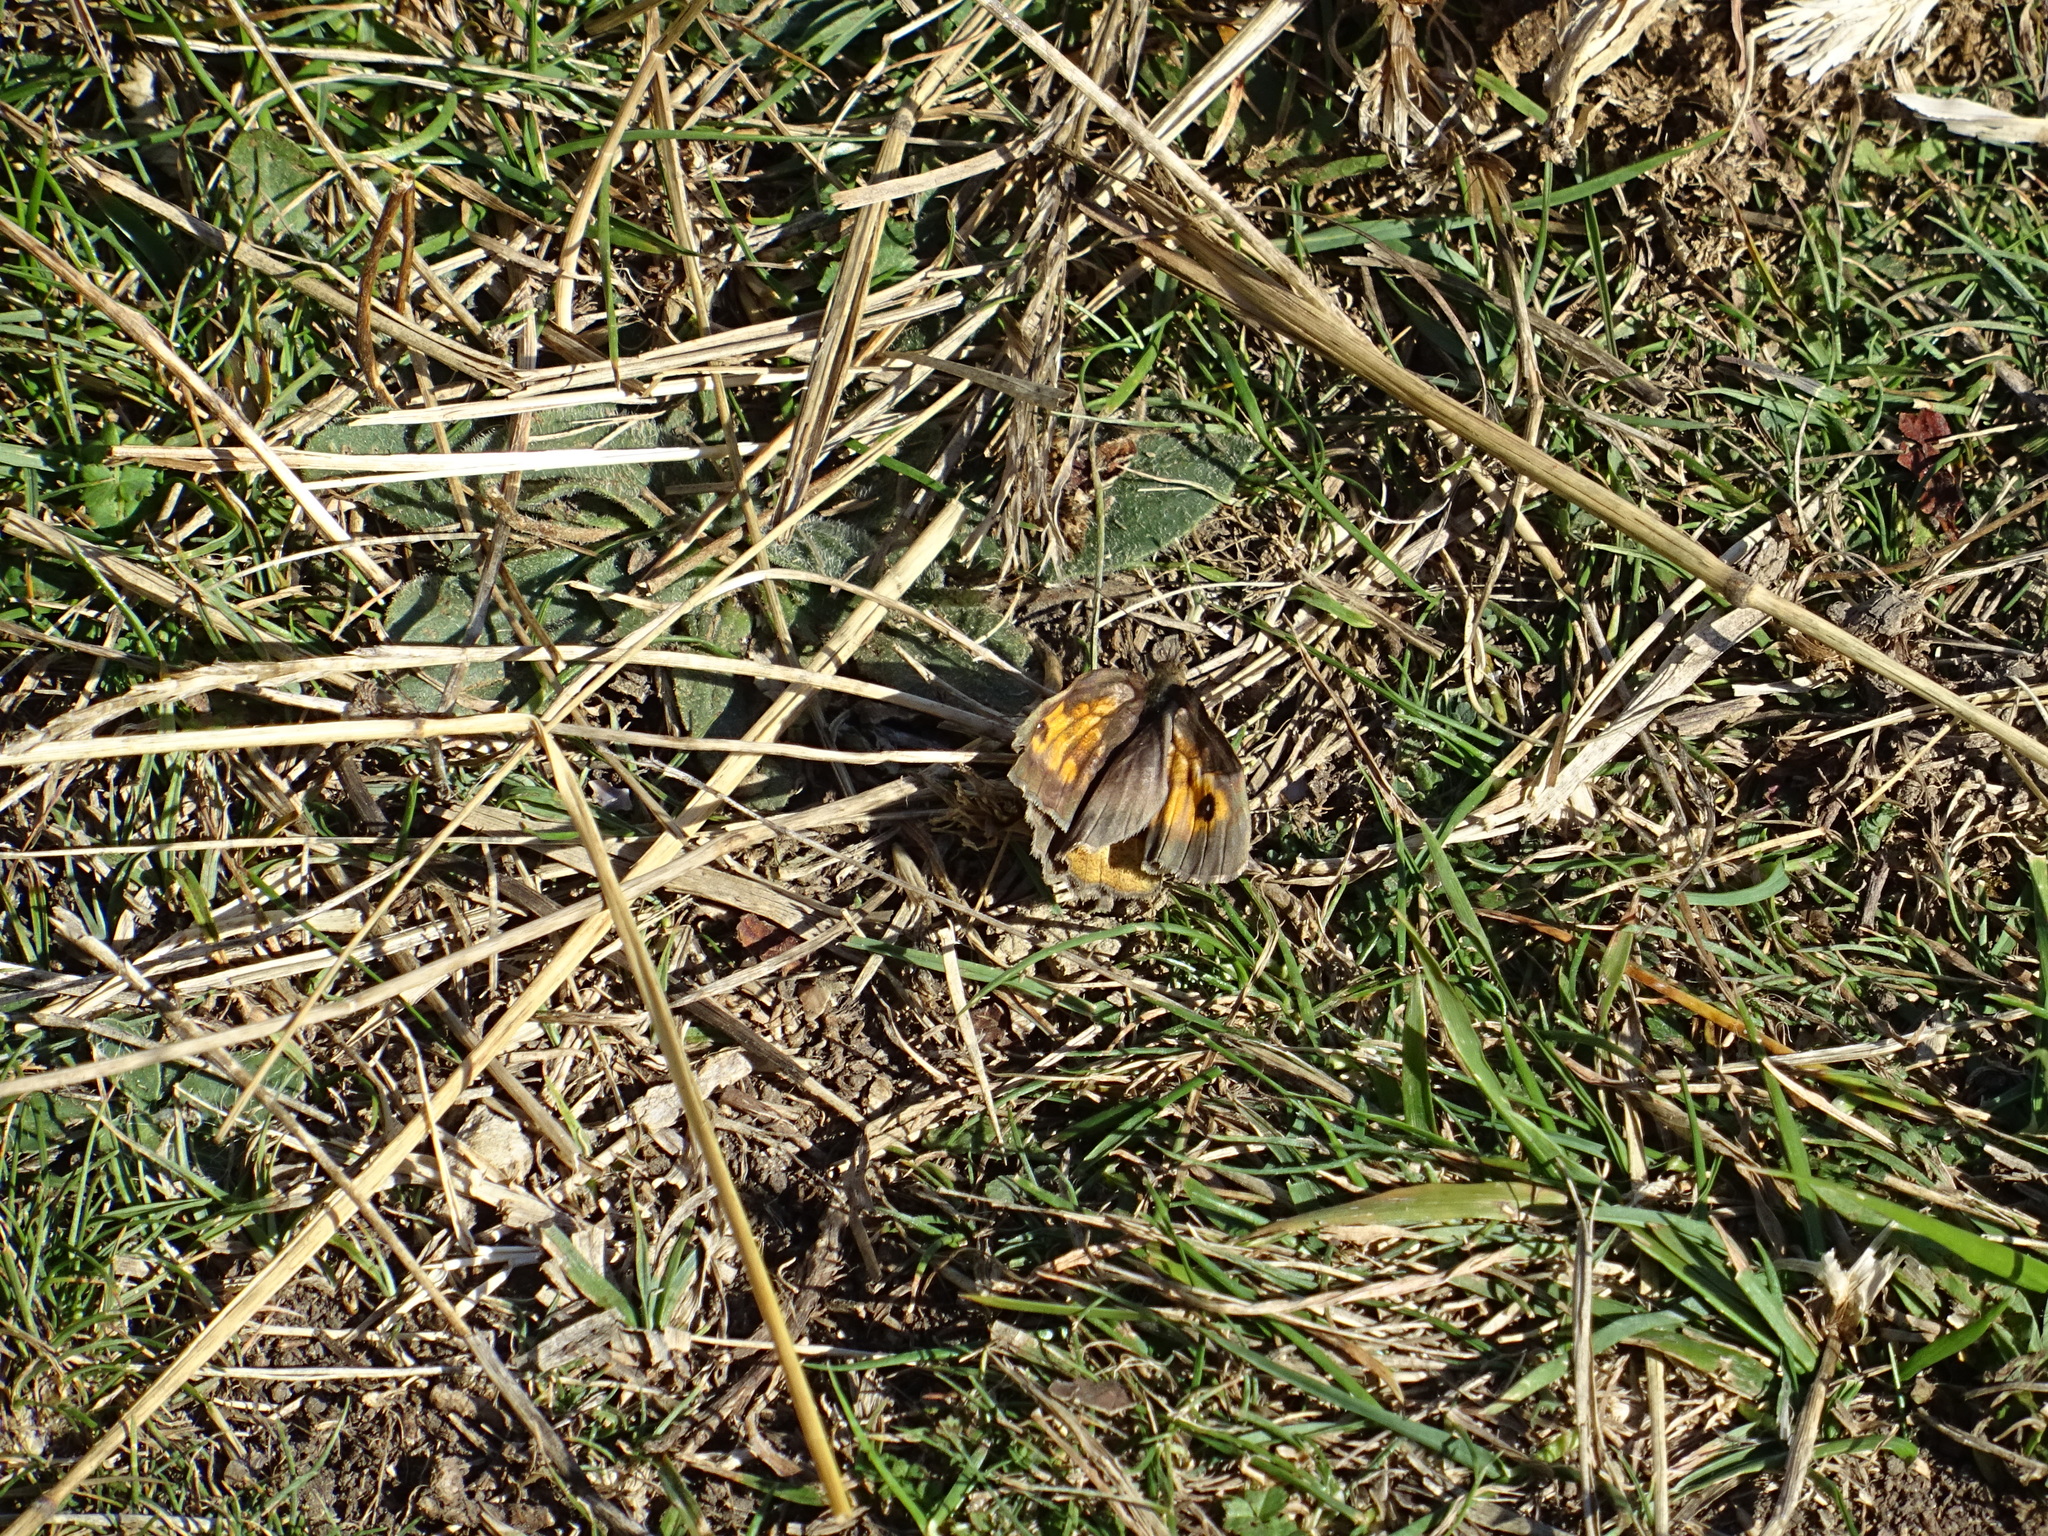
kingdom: Animalia
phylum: Arthropoda
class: Insecta
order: Lepidoptera
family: Nymphalidae
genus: Maniola
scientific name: Maniola jurtina
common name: Meadow brown
